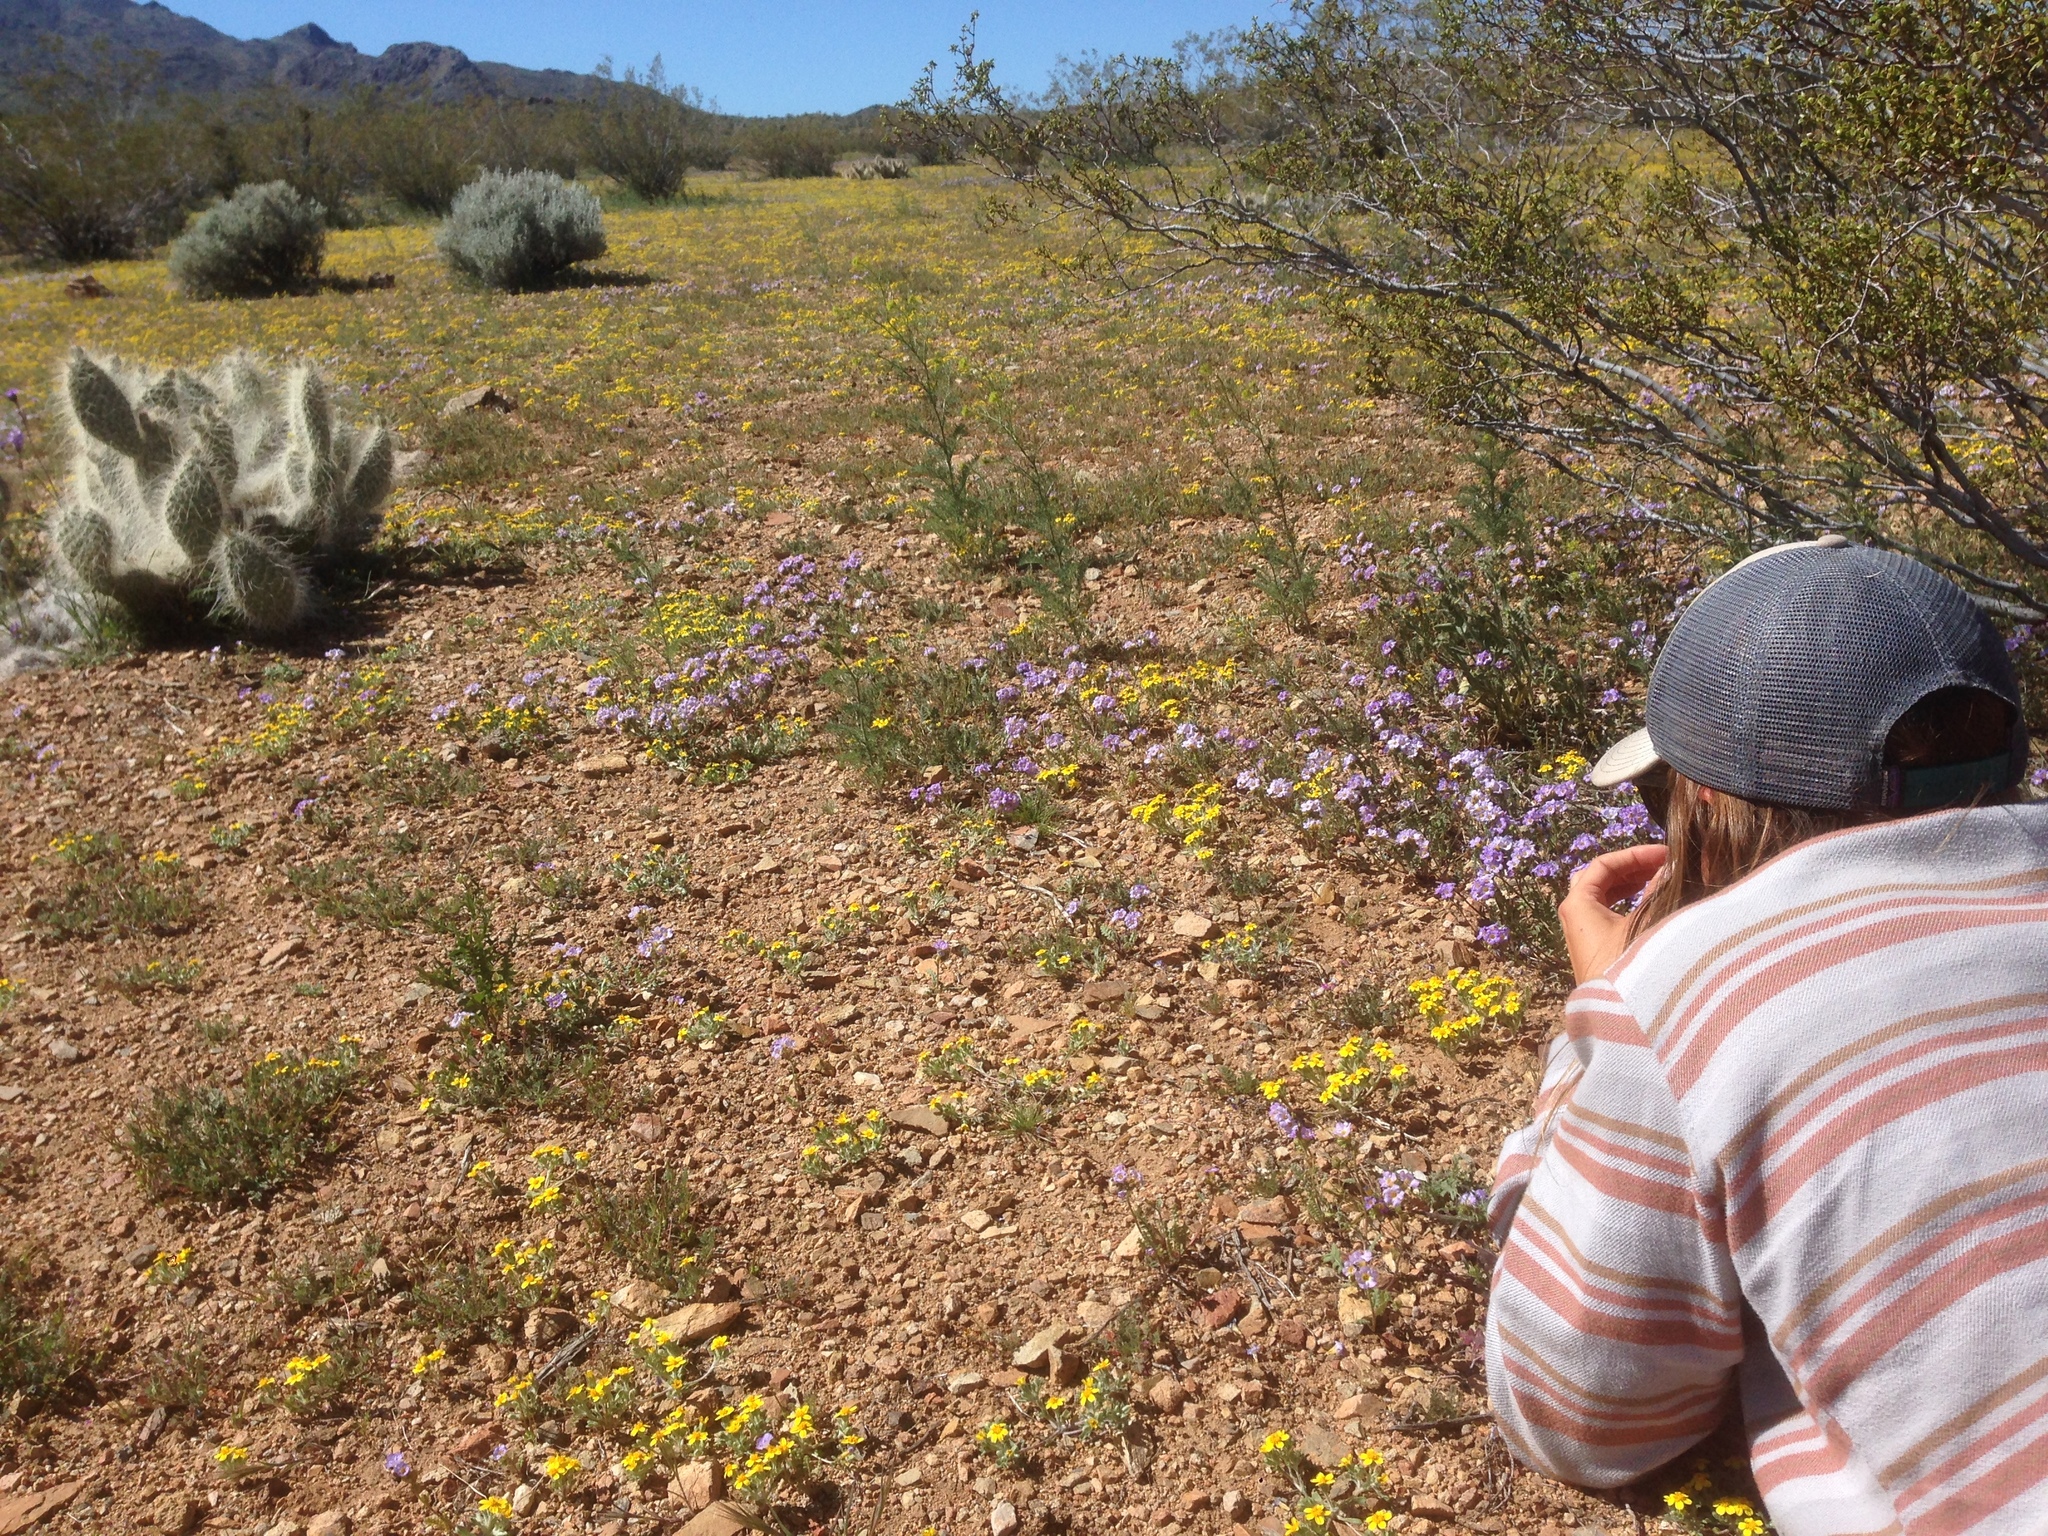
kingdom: Plantae
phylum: Tracheophyta
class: Magnoliopsida
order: Caryophyllales
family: Cactaceae
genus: Opuntia
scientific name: Opuntia polyacantha
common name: Plains prickly-pear
